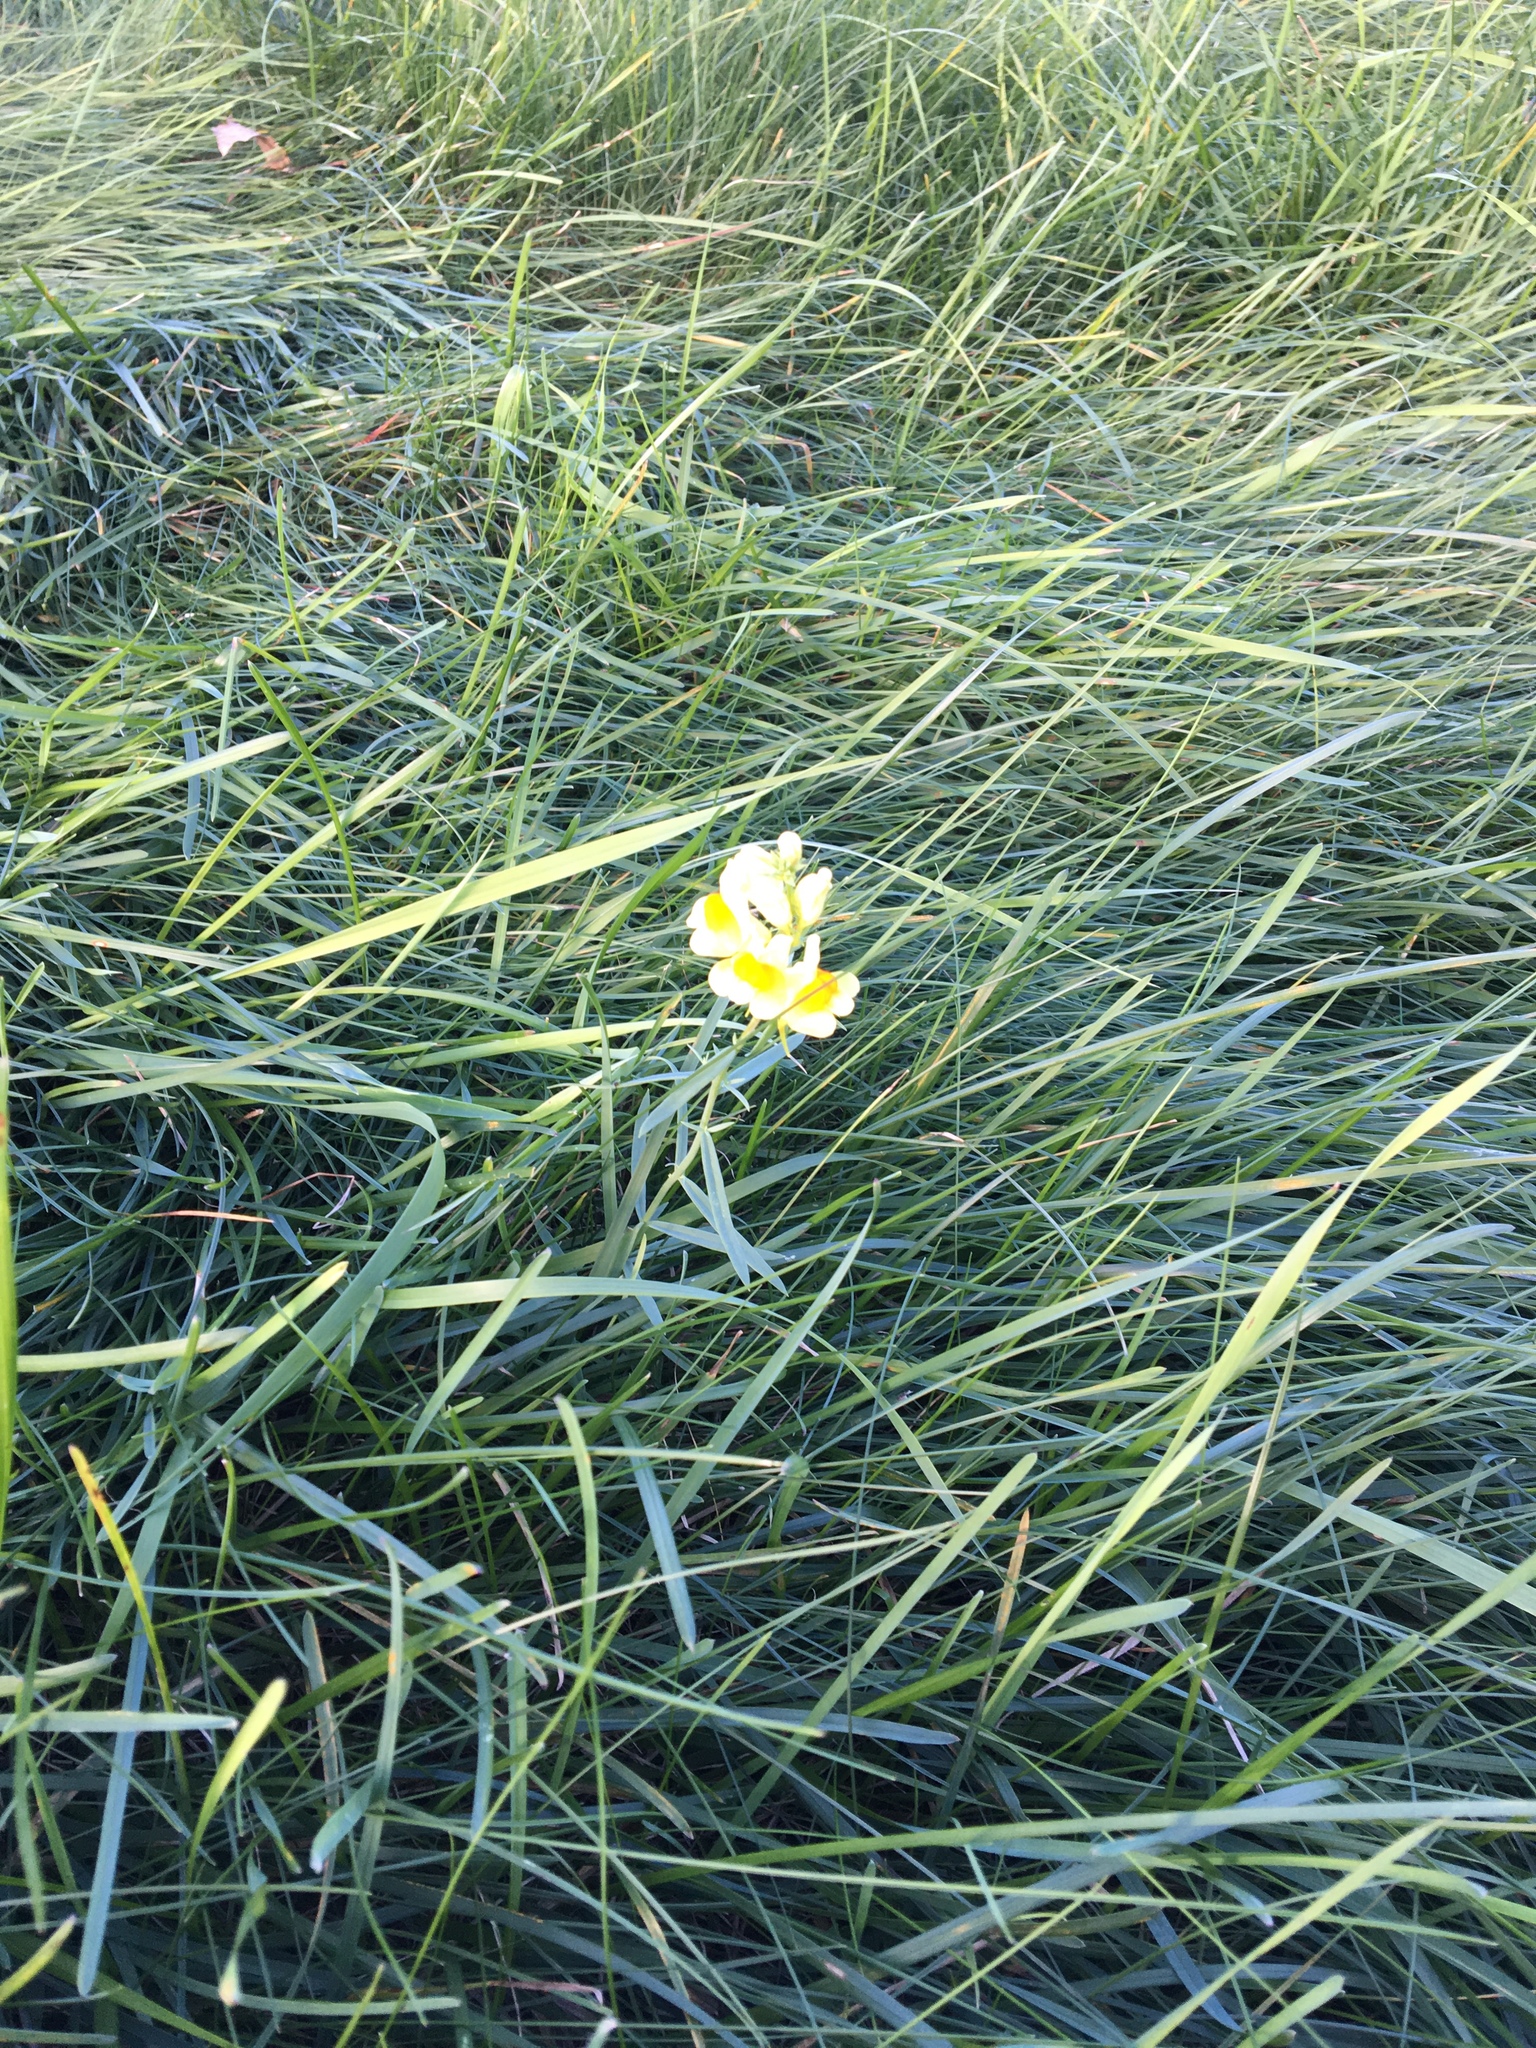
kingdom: Plantae
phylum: Tracheophyta
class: Magnoliopsida
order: Lamiales
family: Plantaginaceae
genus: Linaria
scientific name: Linaria vulgaris
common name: Butter and eggs
